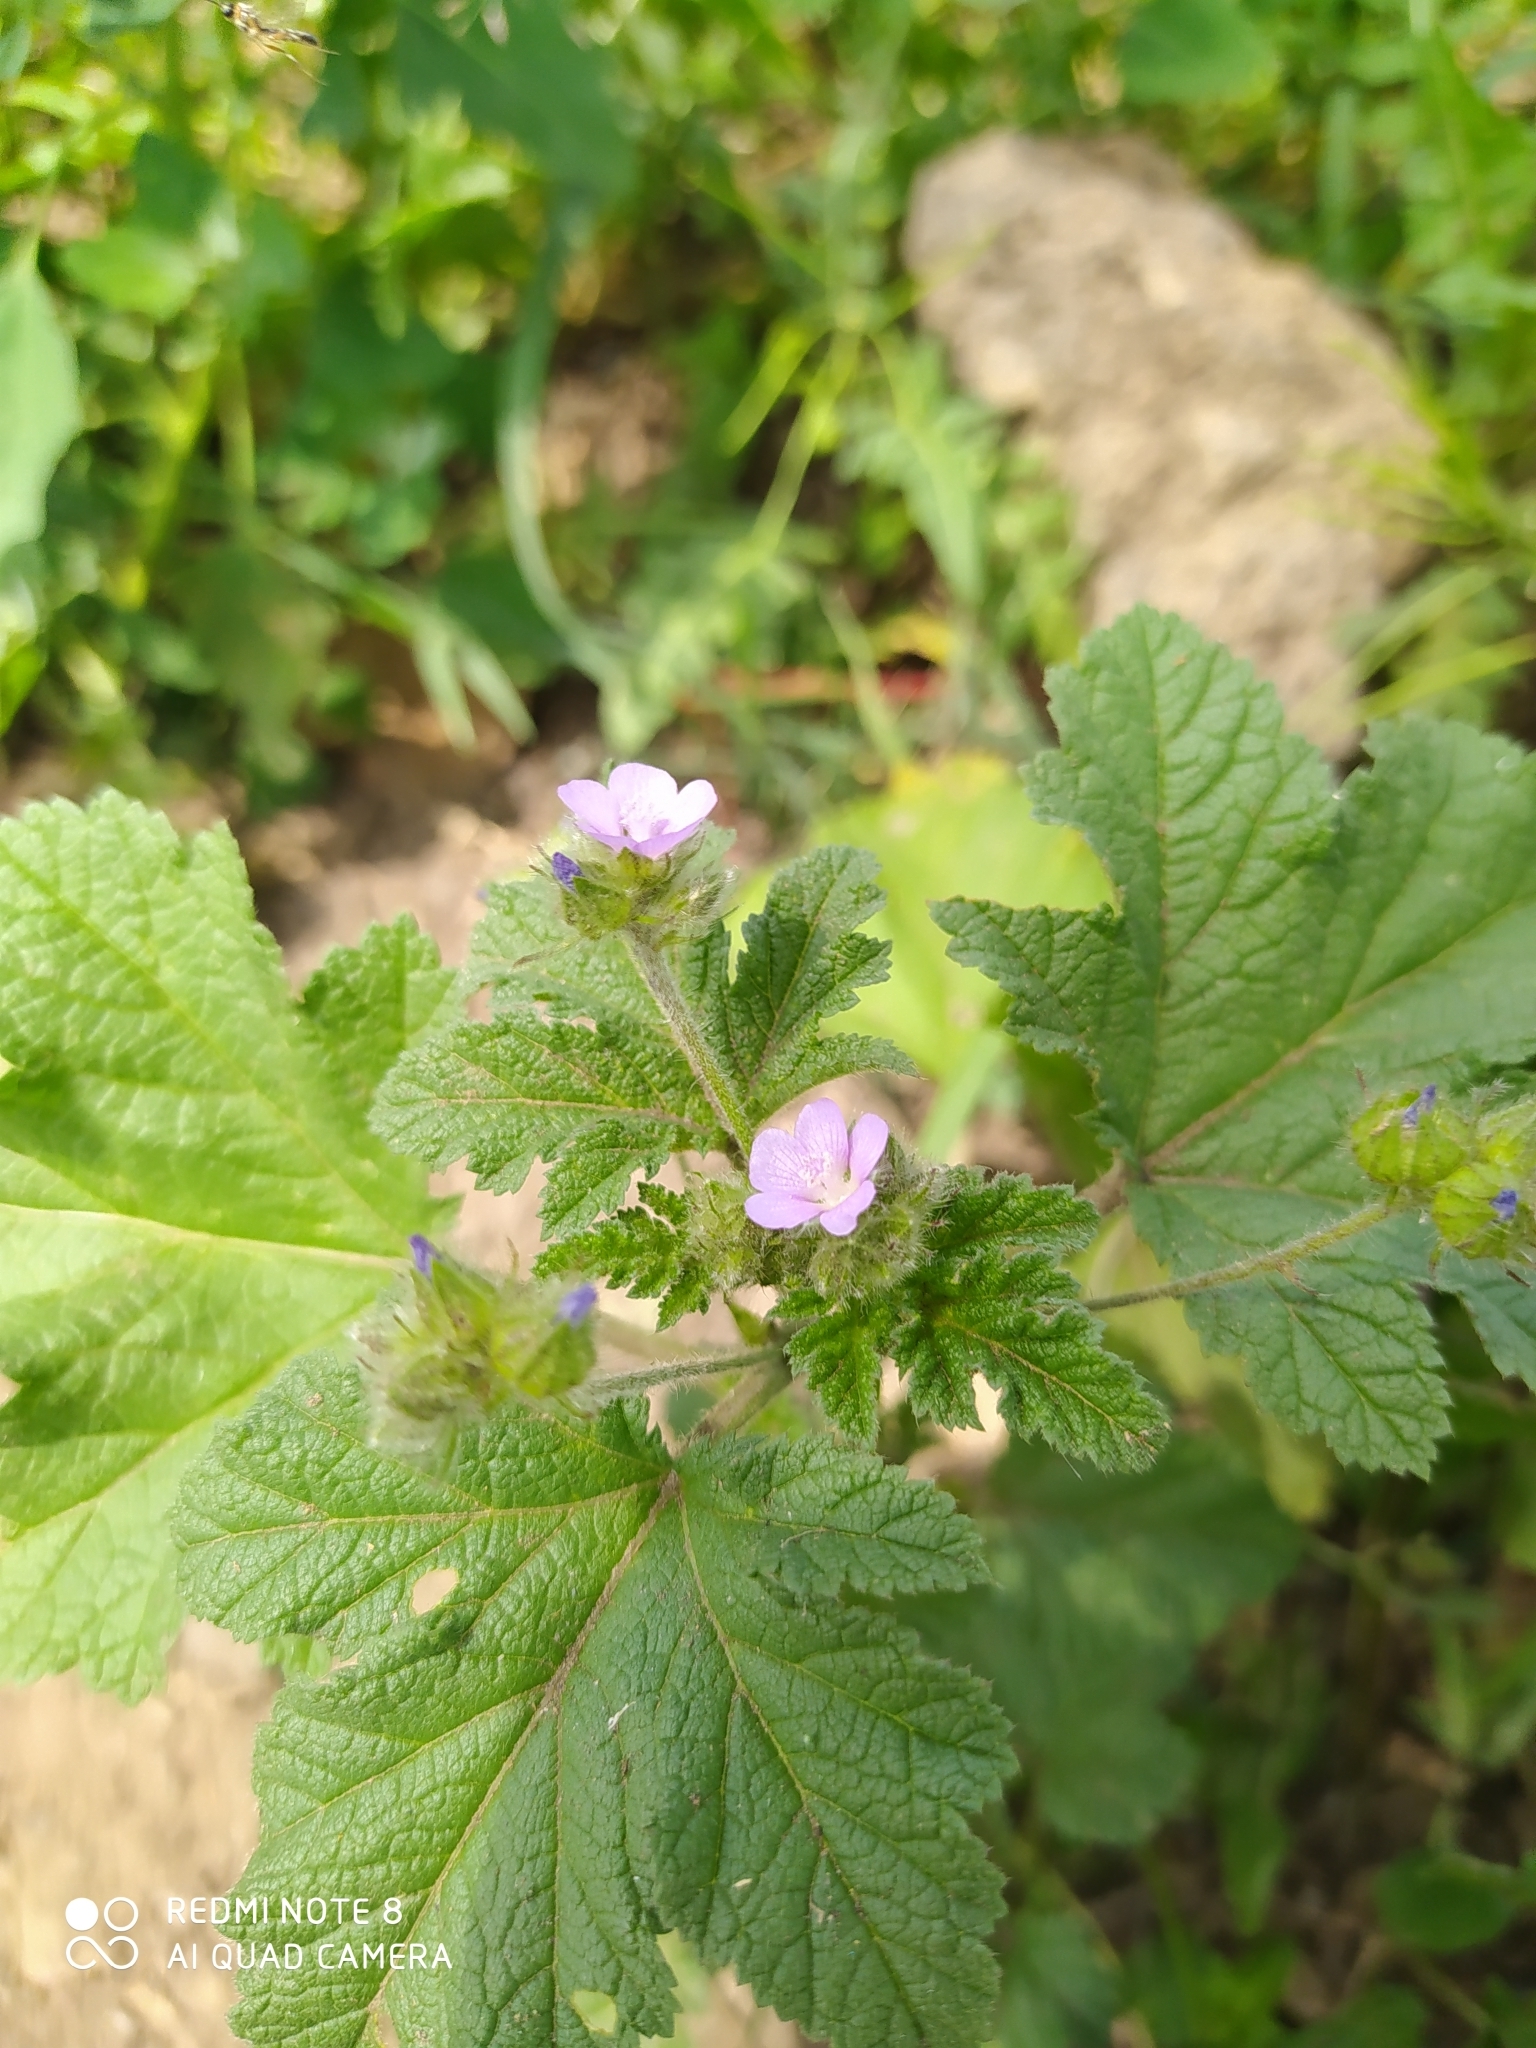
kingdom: Plantae
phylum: Tracheophyta
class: Magnoliopsida
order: Malvales
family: Malvaceae
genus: Fuertesimalva
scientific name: Fuertesimalva limensis
